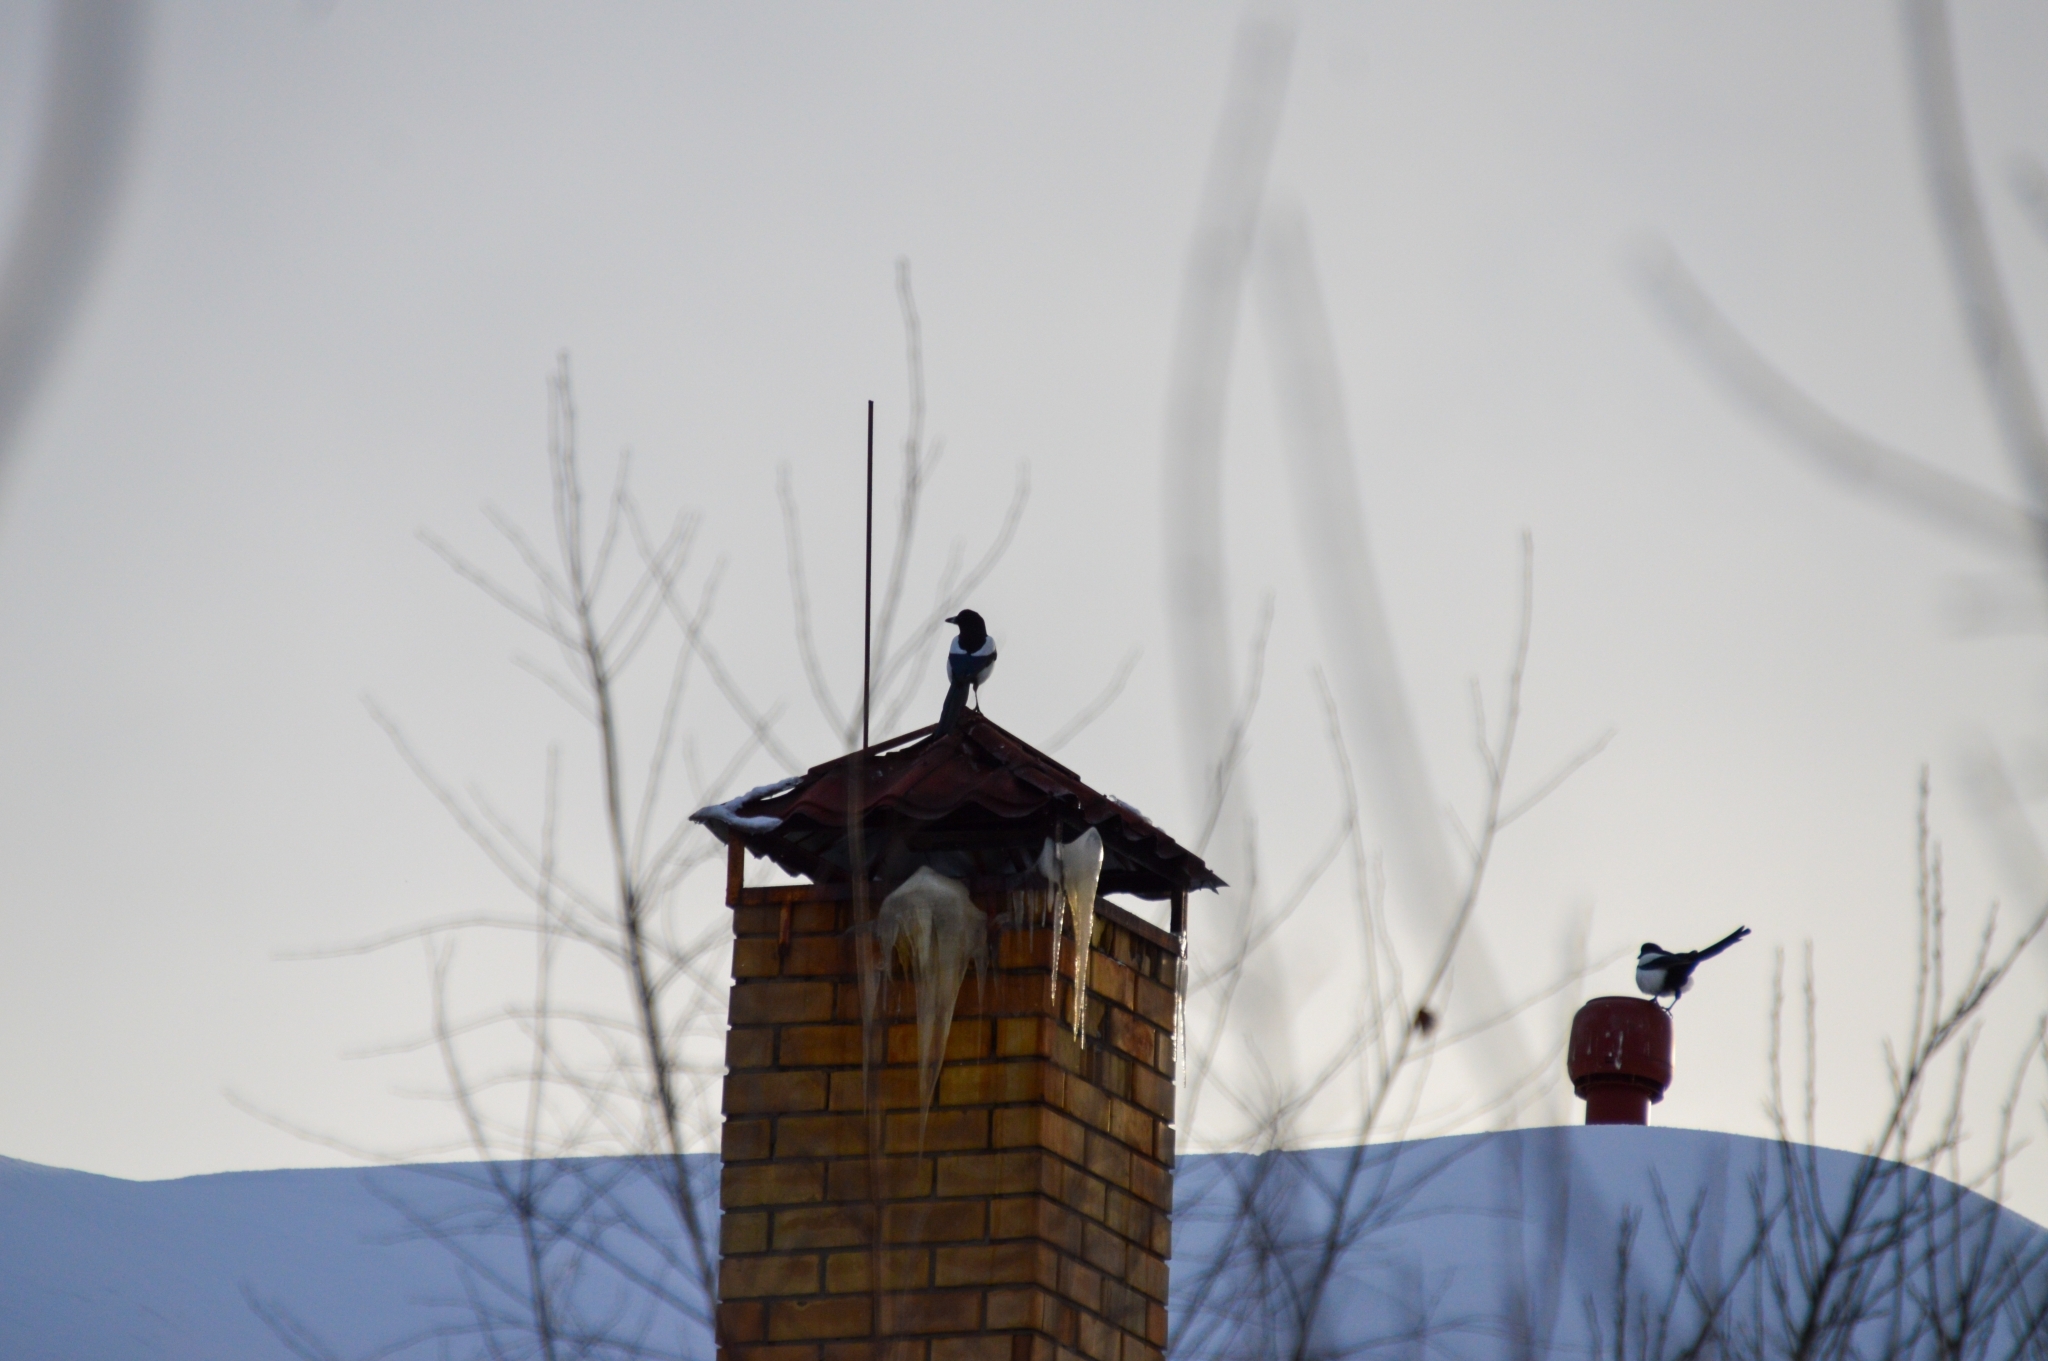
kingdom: Animalia
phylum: Chordata
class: Aves
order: Passeriformes
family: Corvidae
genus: Pica
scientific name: Pica pica
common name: Eurasian magpie
